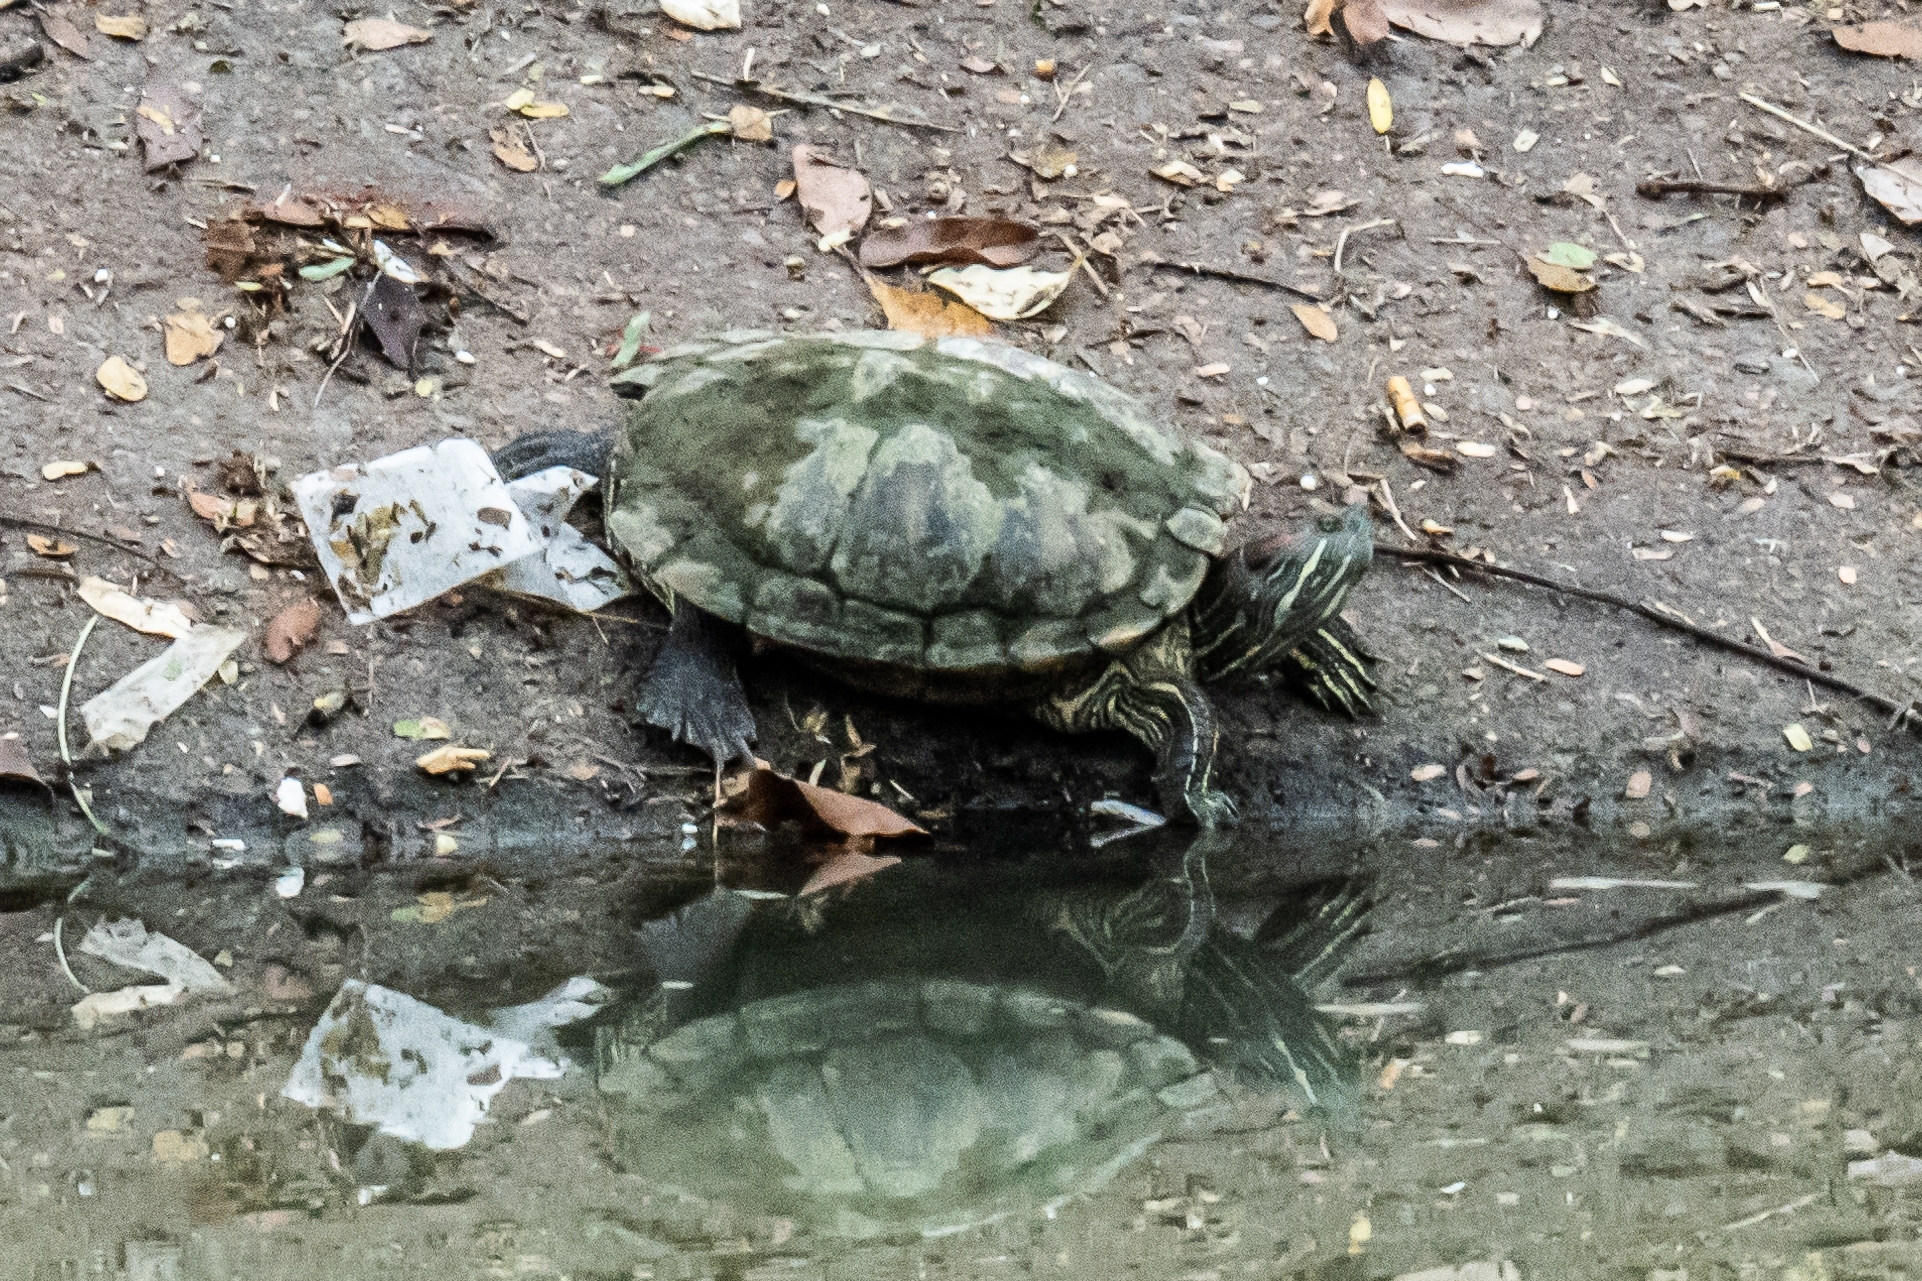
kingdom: Animalia
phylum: Chordata
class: Testudines
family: Emydidae
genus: Trachemys
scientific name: Trachemys scripta
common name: Slider
